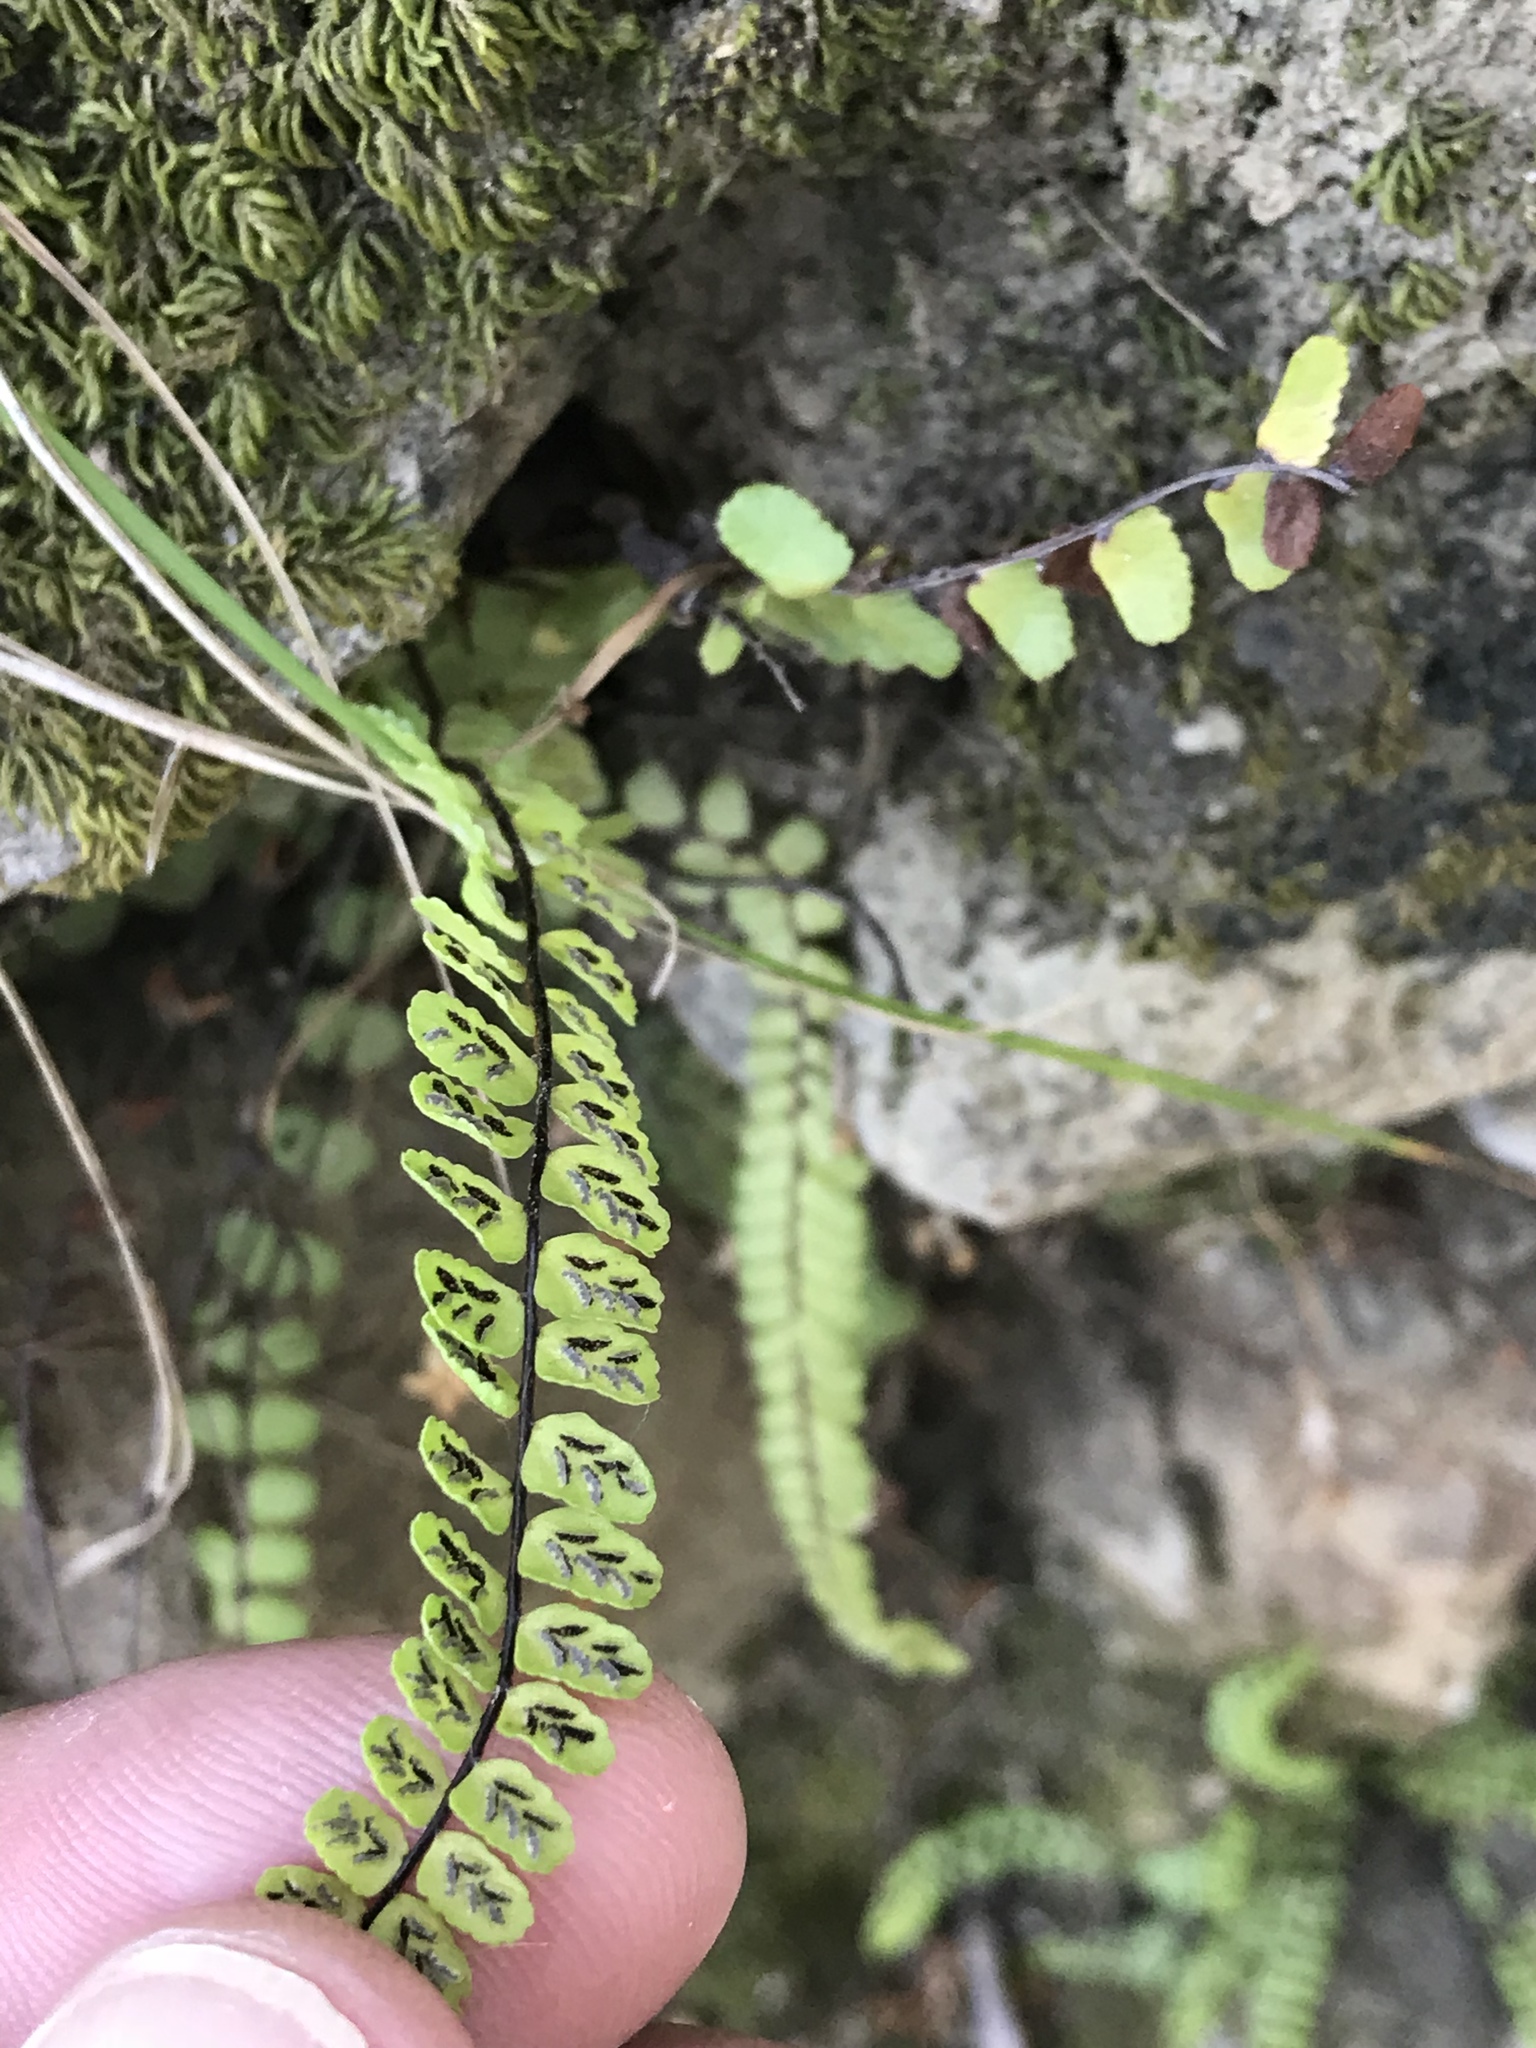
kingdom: Plantae
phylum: Tracheophyta
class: Polypodiopsida
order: Polypodiales
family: Aspleniaceae
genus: Asplenium
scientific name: Asplenium trichomanes
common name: Maidenhair spleenwort
